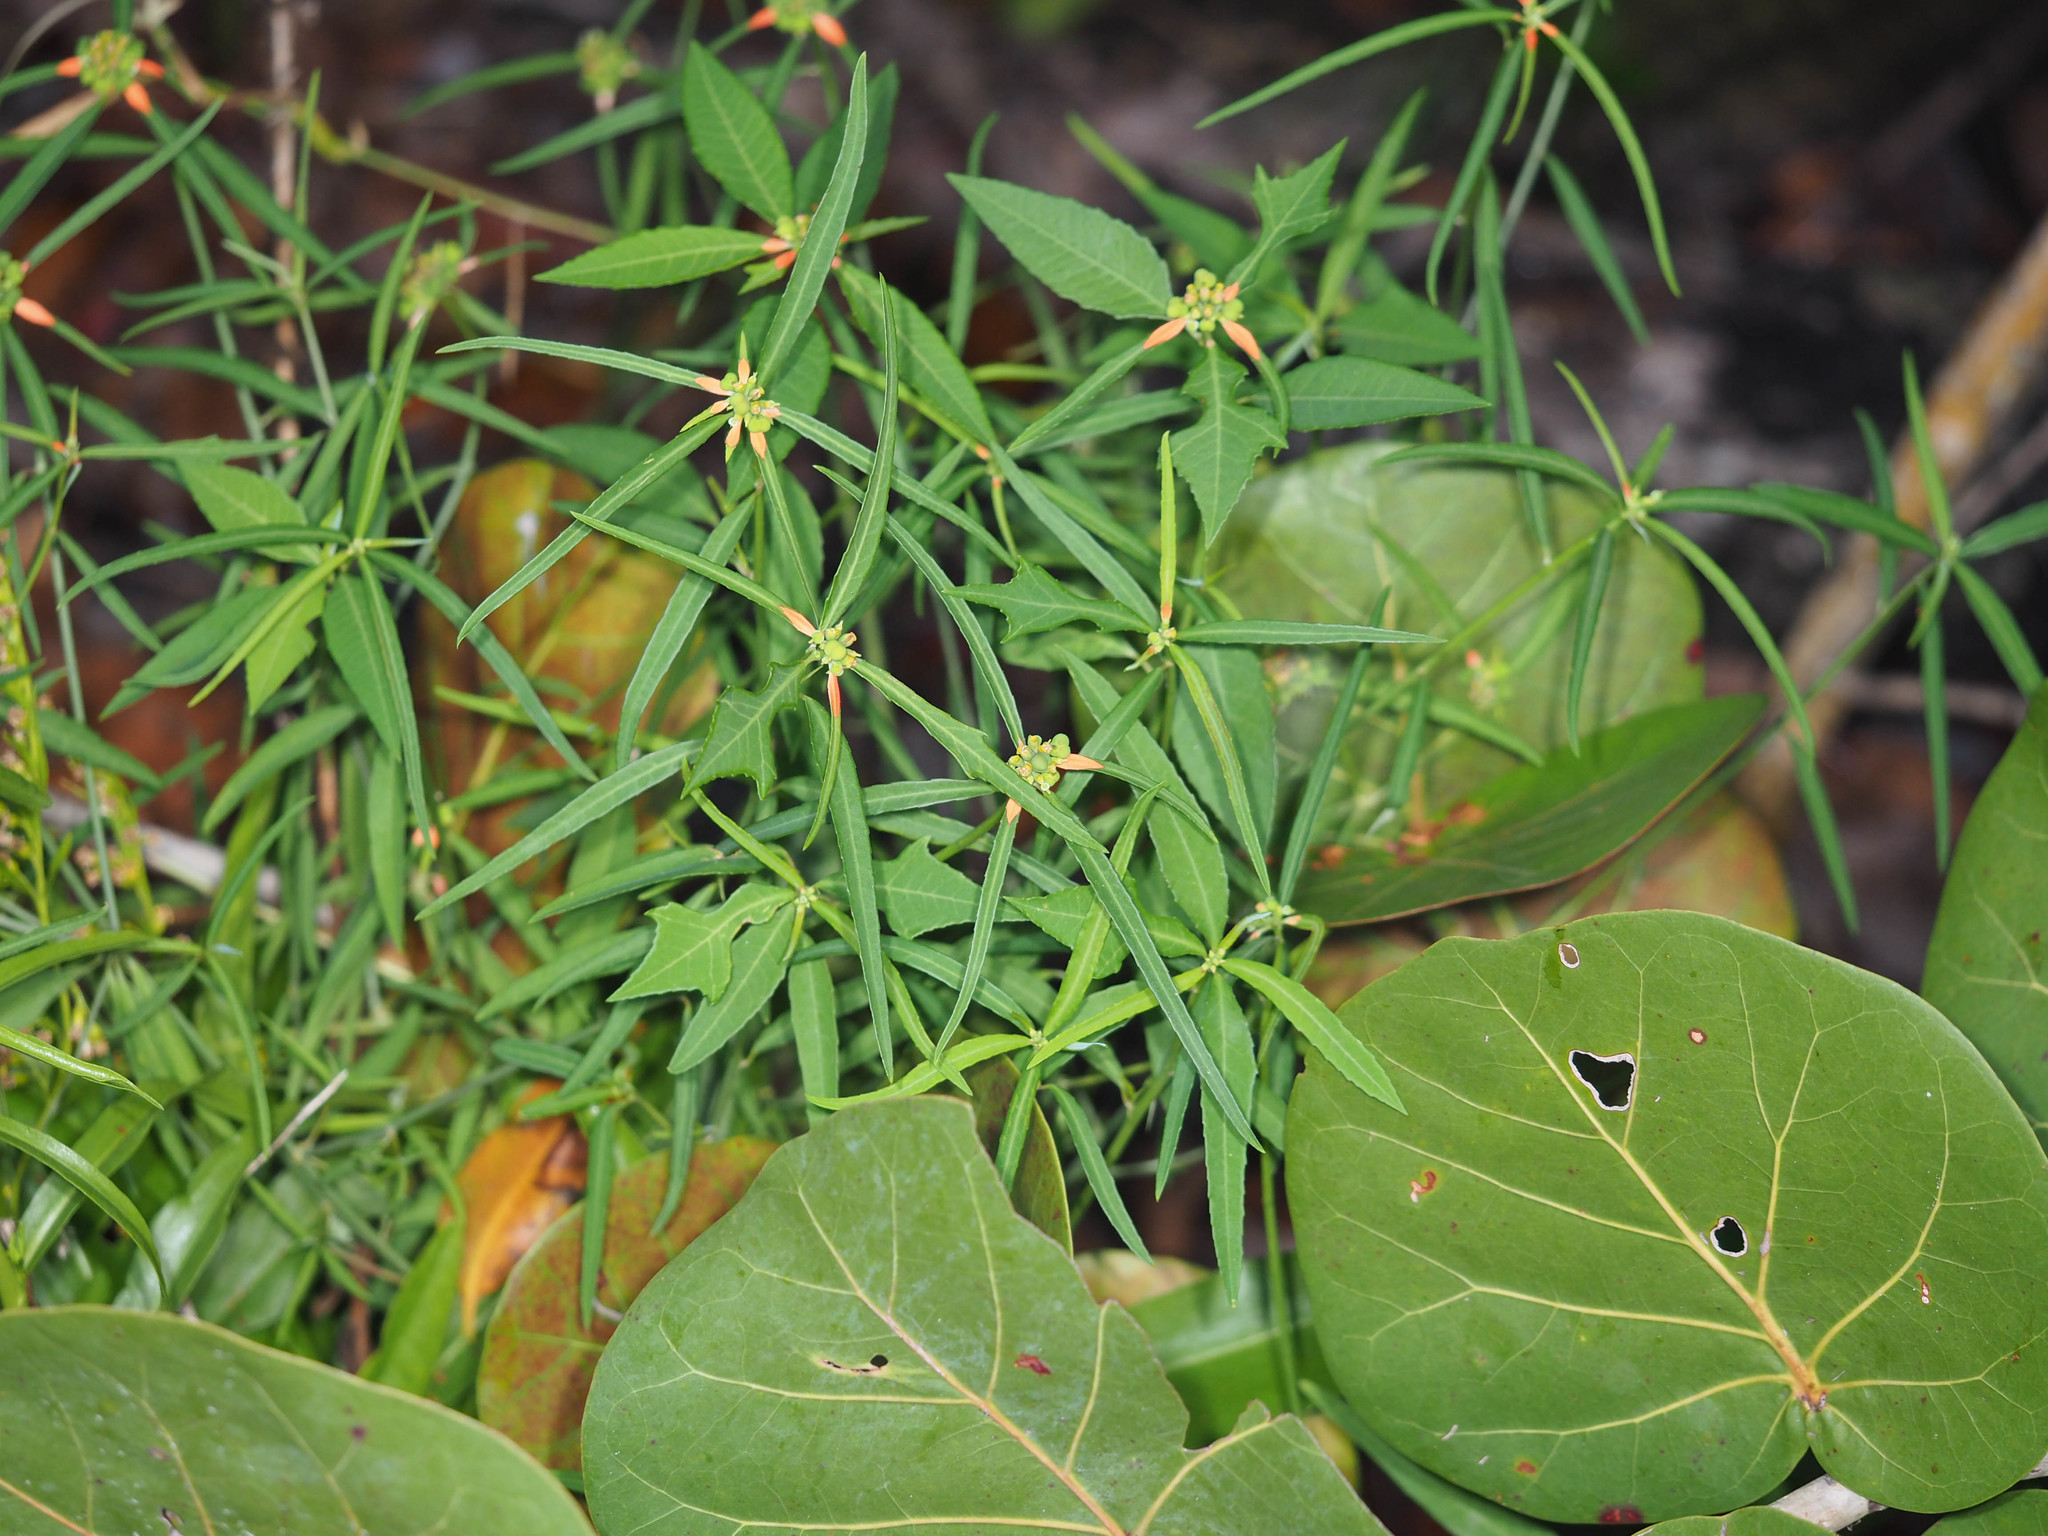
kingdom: Plantae
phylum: Tracheophyta
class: Magnoliopsida
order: Malpighiales
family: Euphorbiaceae
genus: Euphorbia
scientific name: Euphorbia heterophylla
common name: Mexican fireplant
